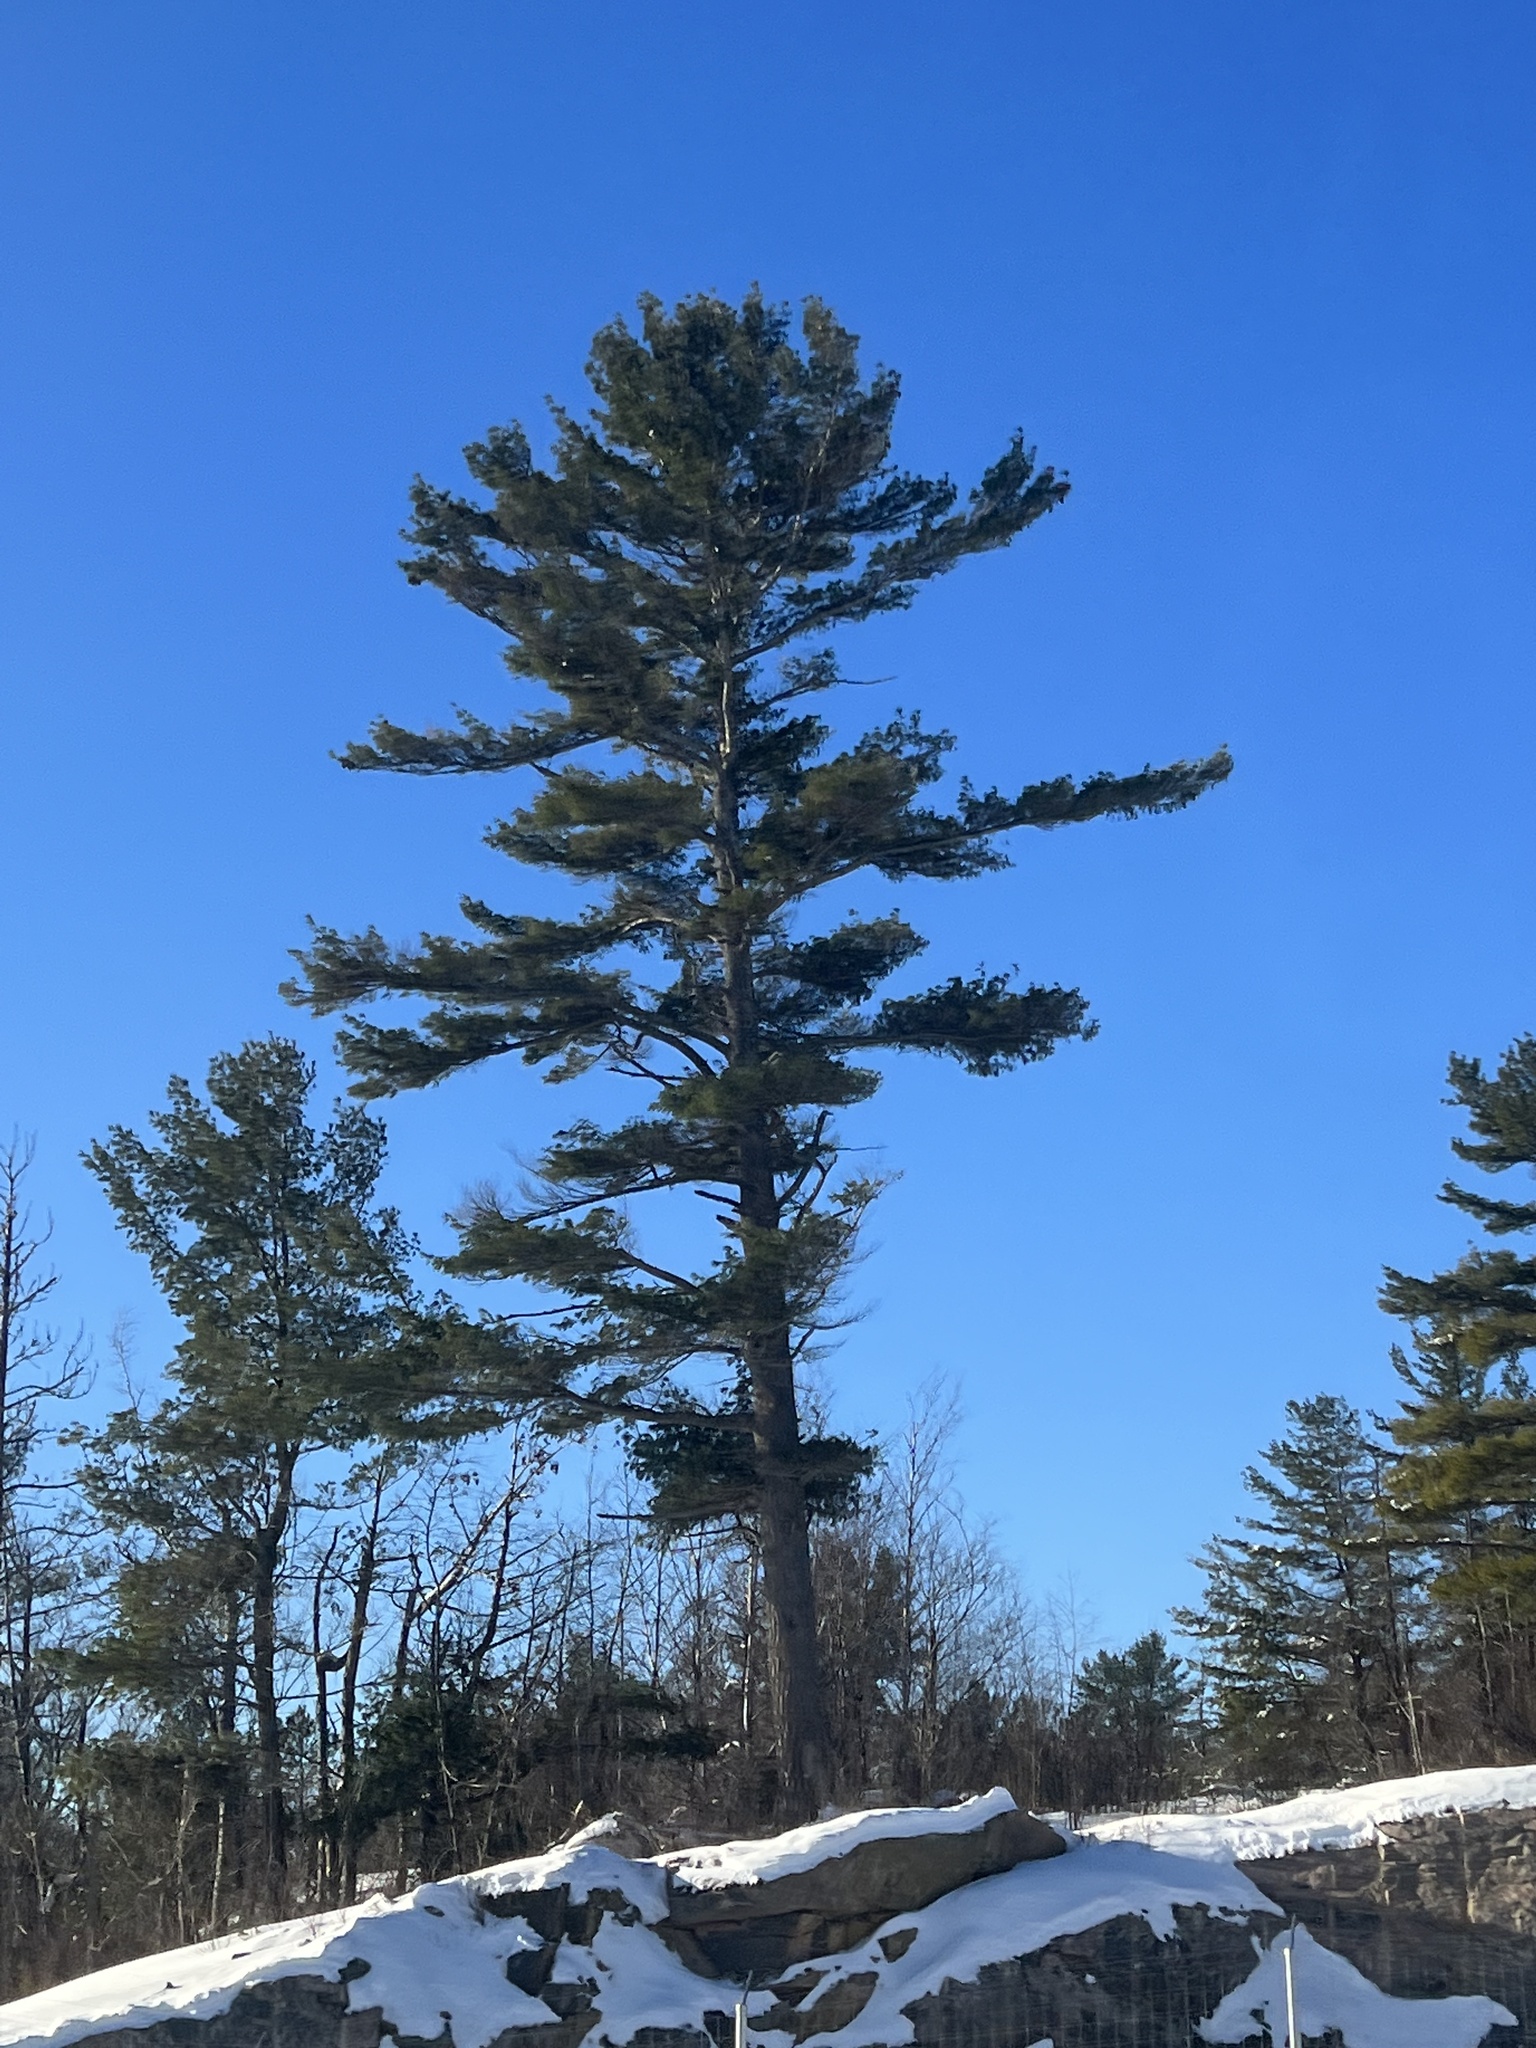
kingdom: Plantae
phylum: Tracheophyta
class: Pinopsida
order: Pinales
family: Pinaceae
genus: Pinus
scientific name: Pinus strobus
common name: Weymouth pine
